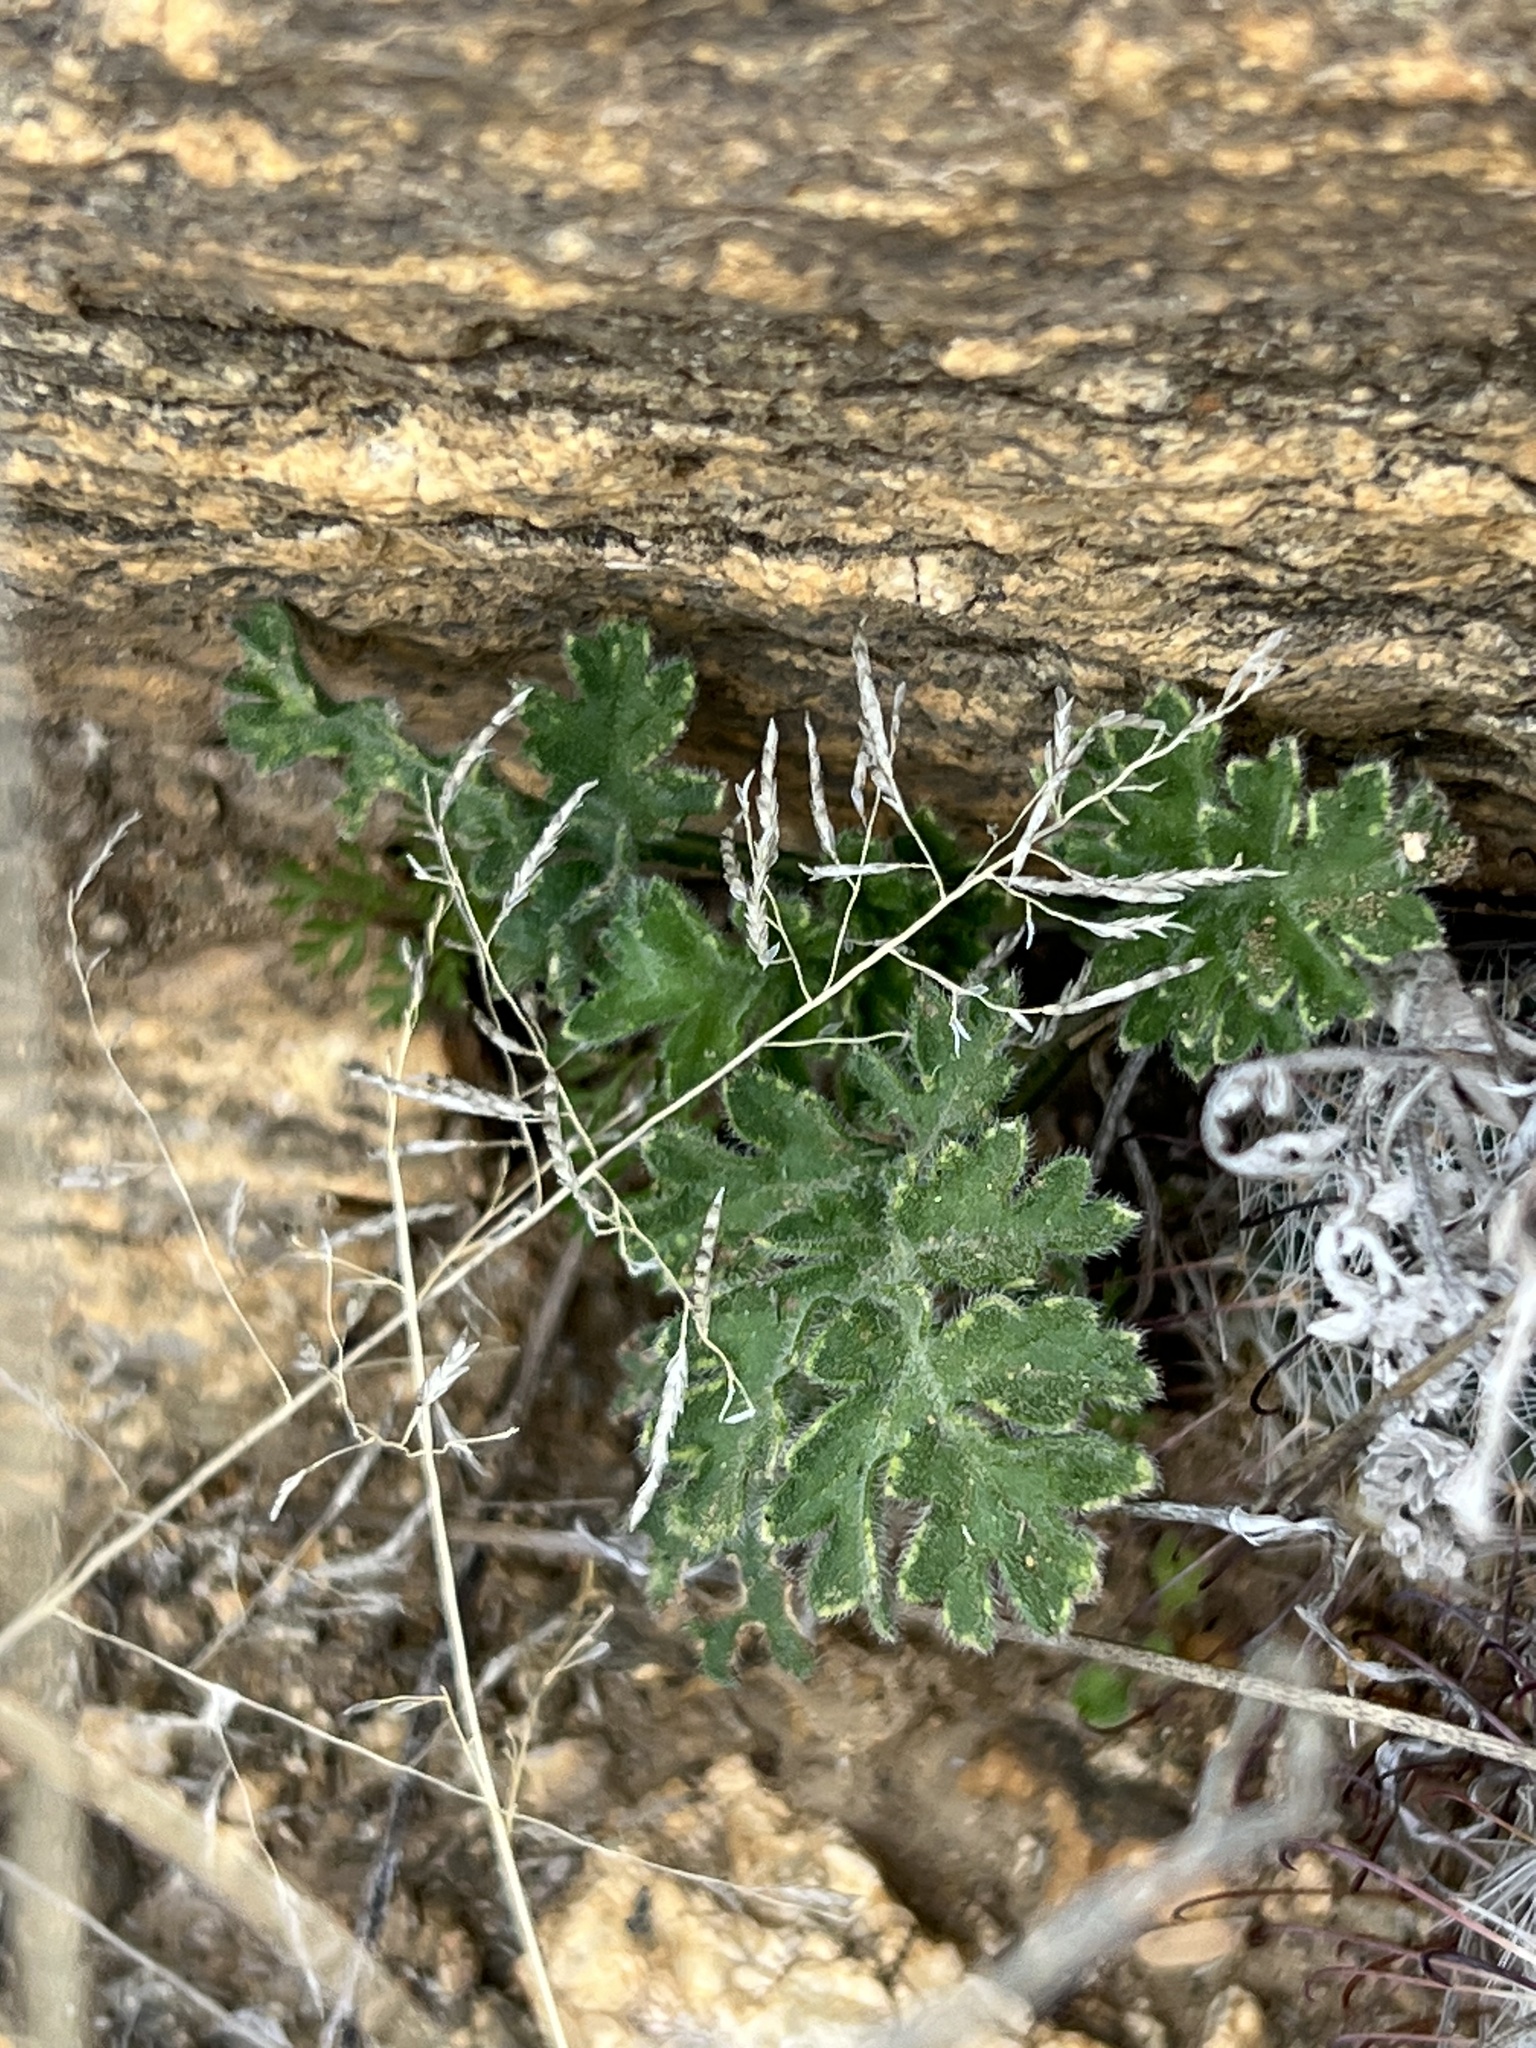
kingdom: Plantae
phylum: Tracheophyta
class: Polypodiopsida
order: Polypodiales
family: Pteridaceae
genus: Bommeria
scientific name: Bommeria hispida
